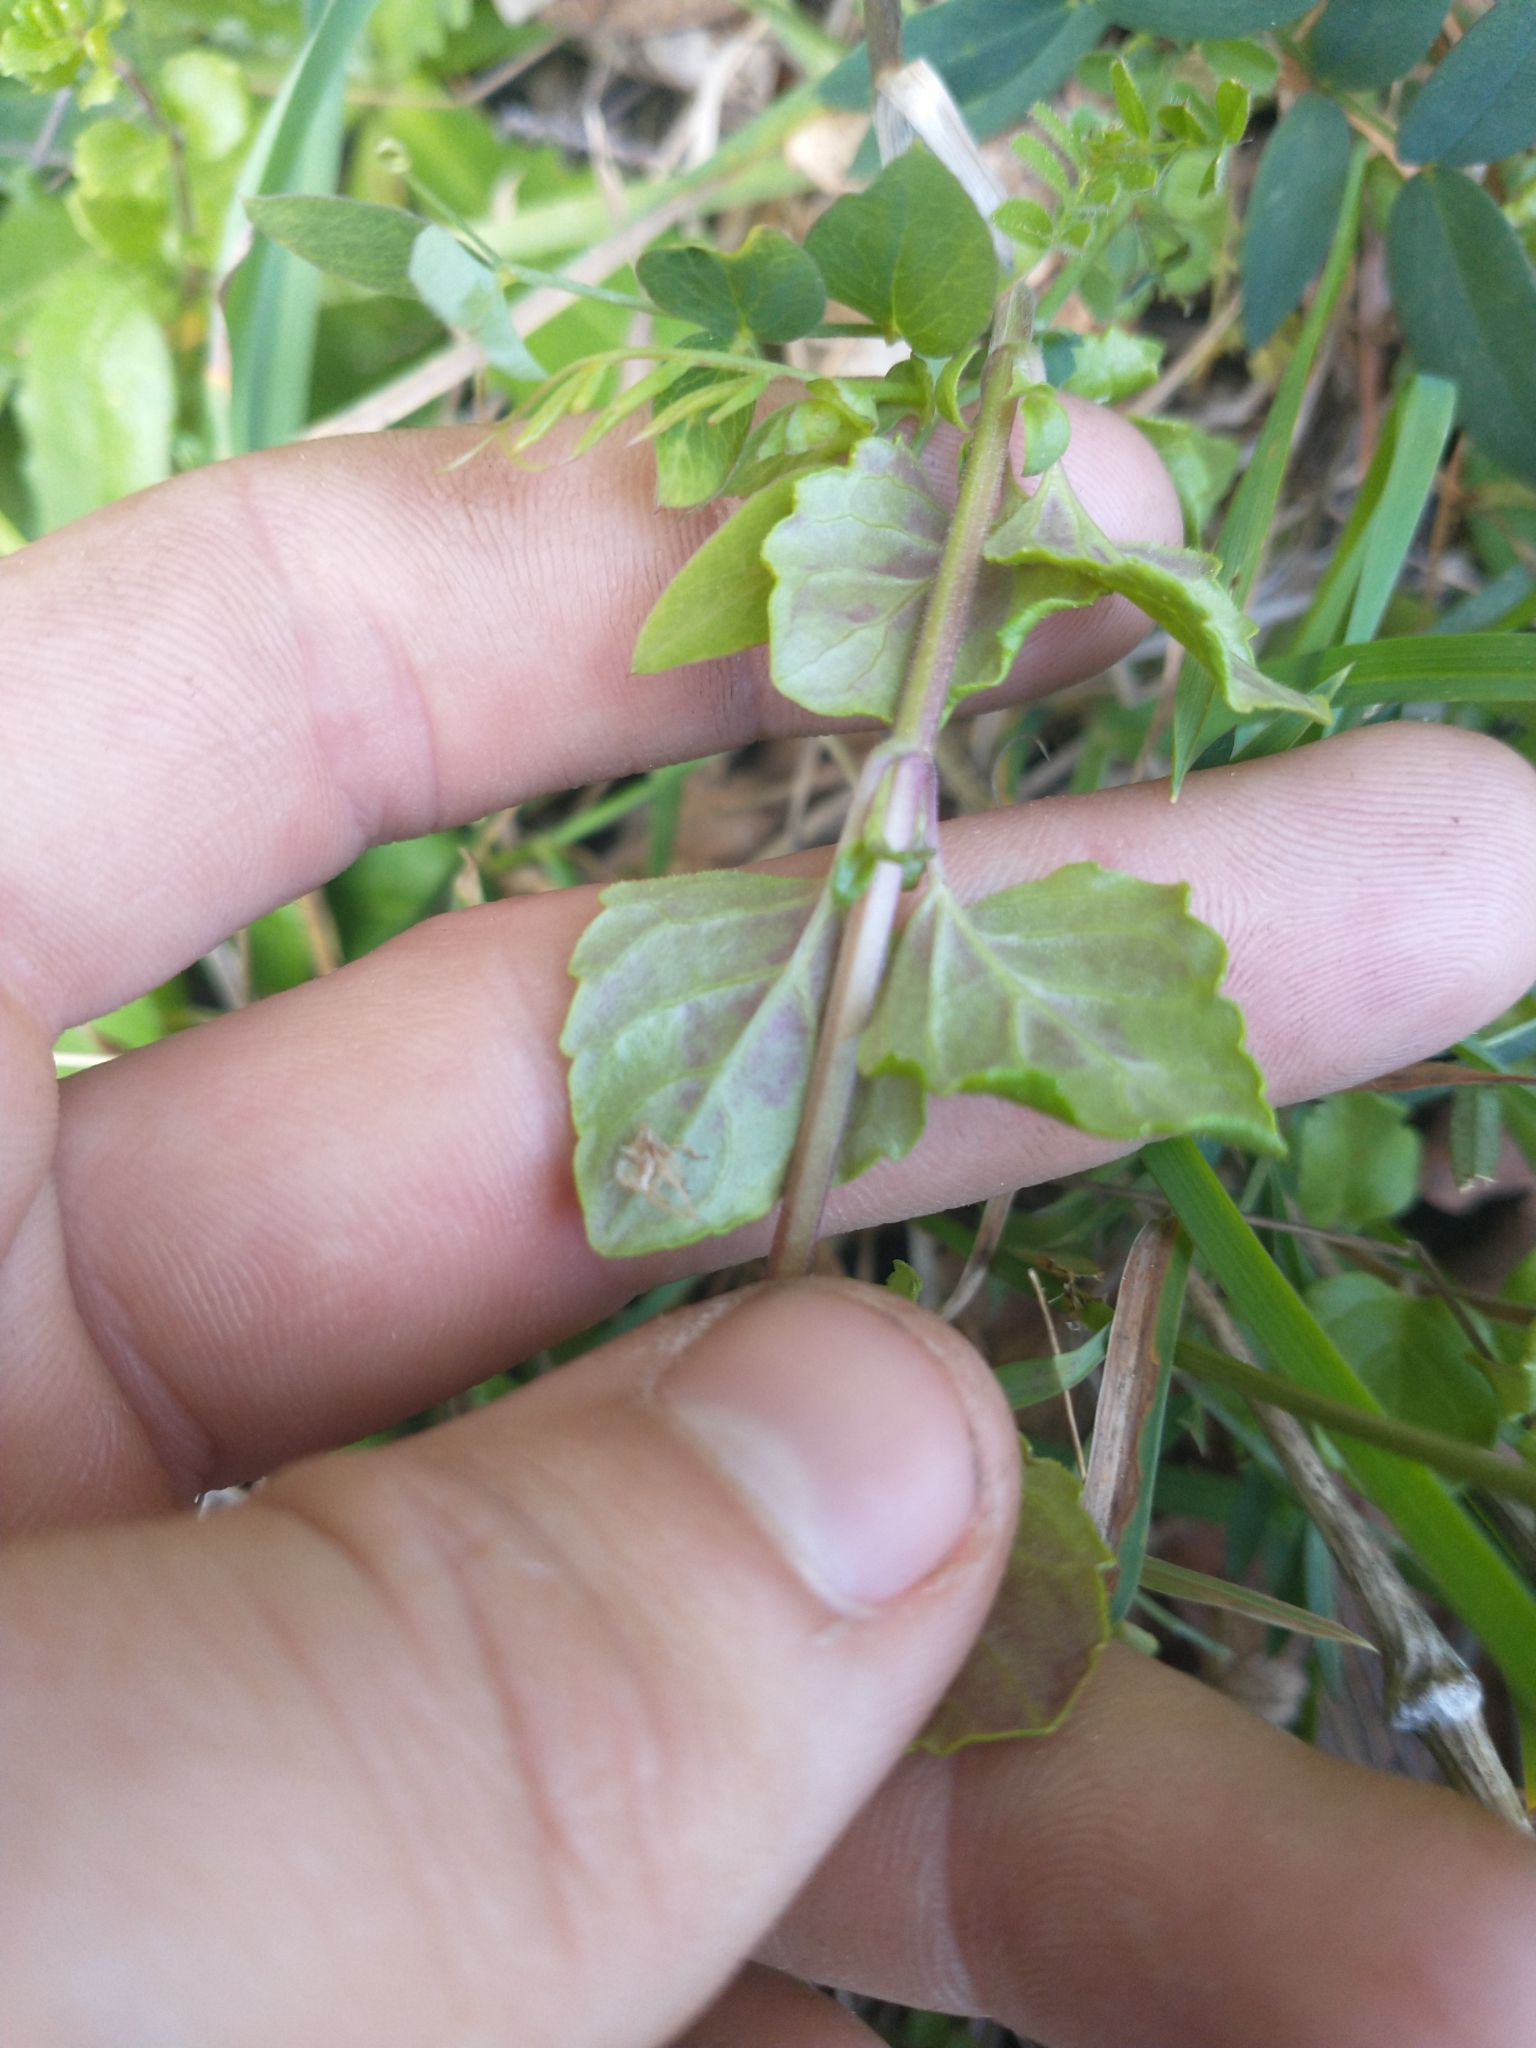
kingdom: Plantae
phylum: Tracheophyta
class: Magnoliopsida
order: Lamiales
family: Lamiaceae
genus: Micromeria
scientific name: Micromeria douglasii
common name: Yerba buena
